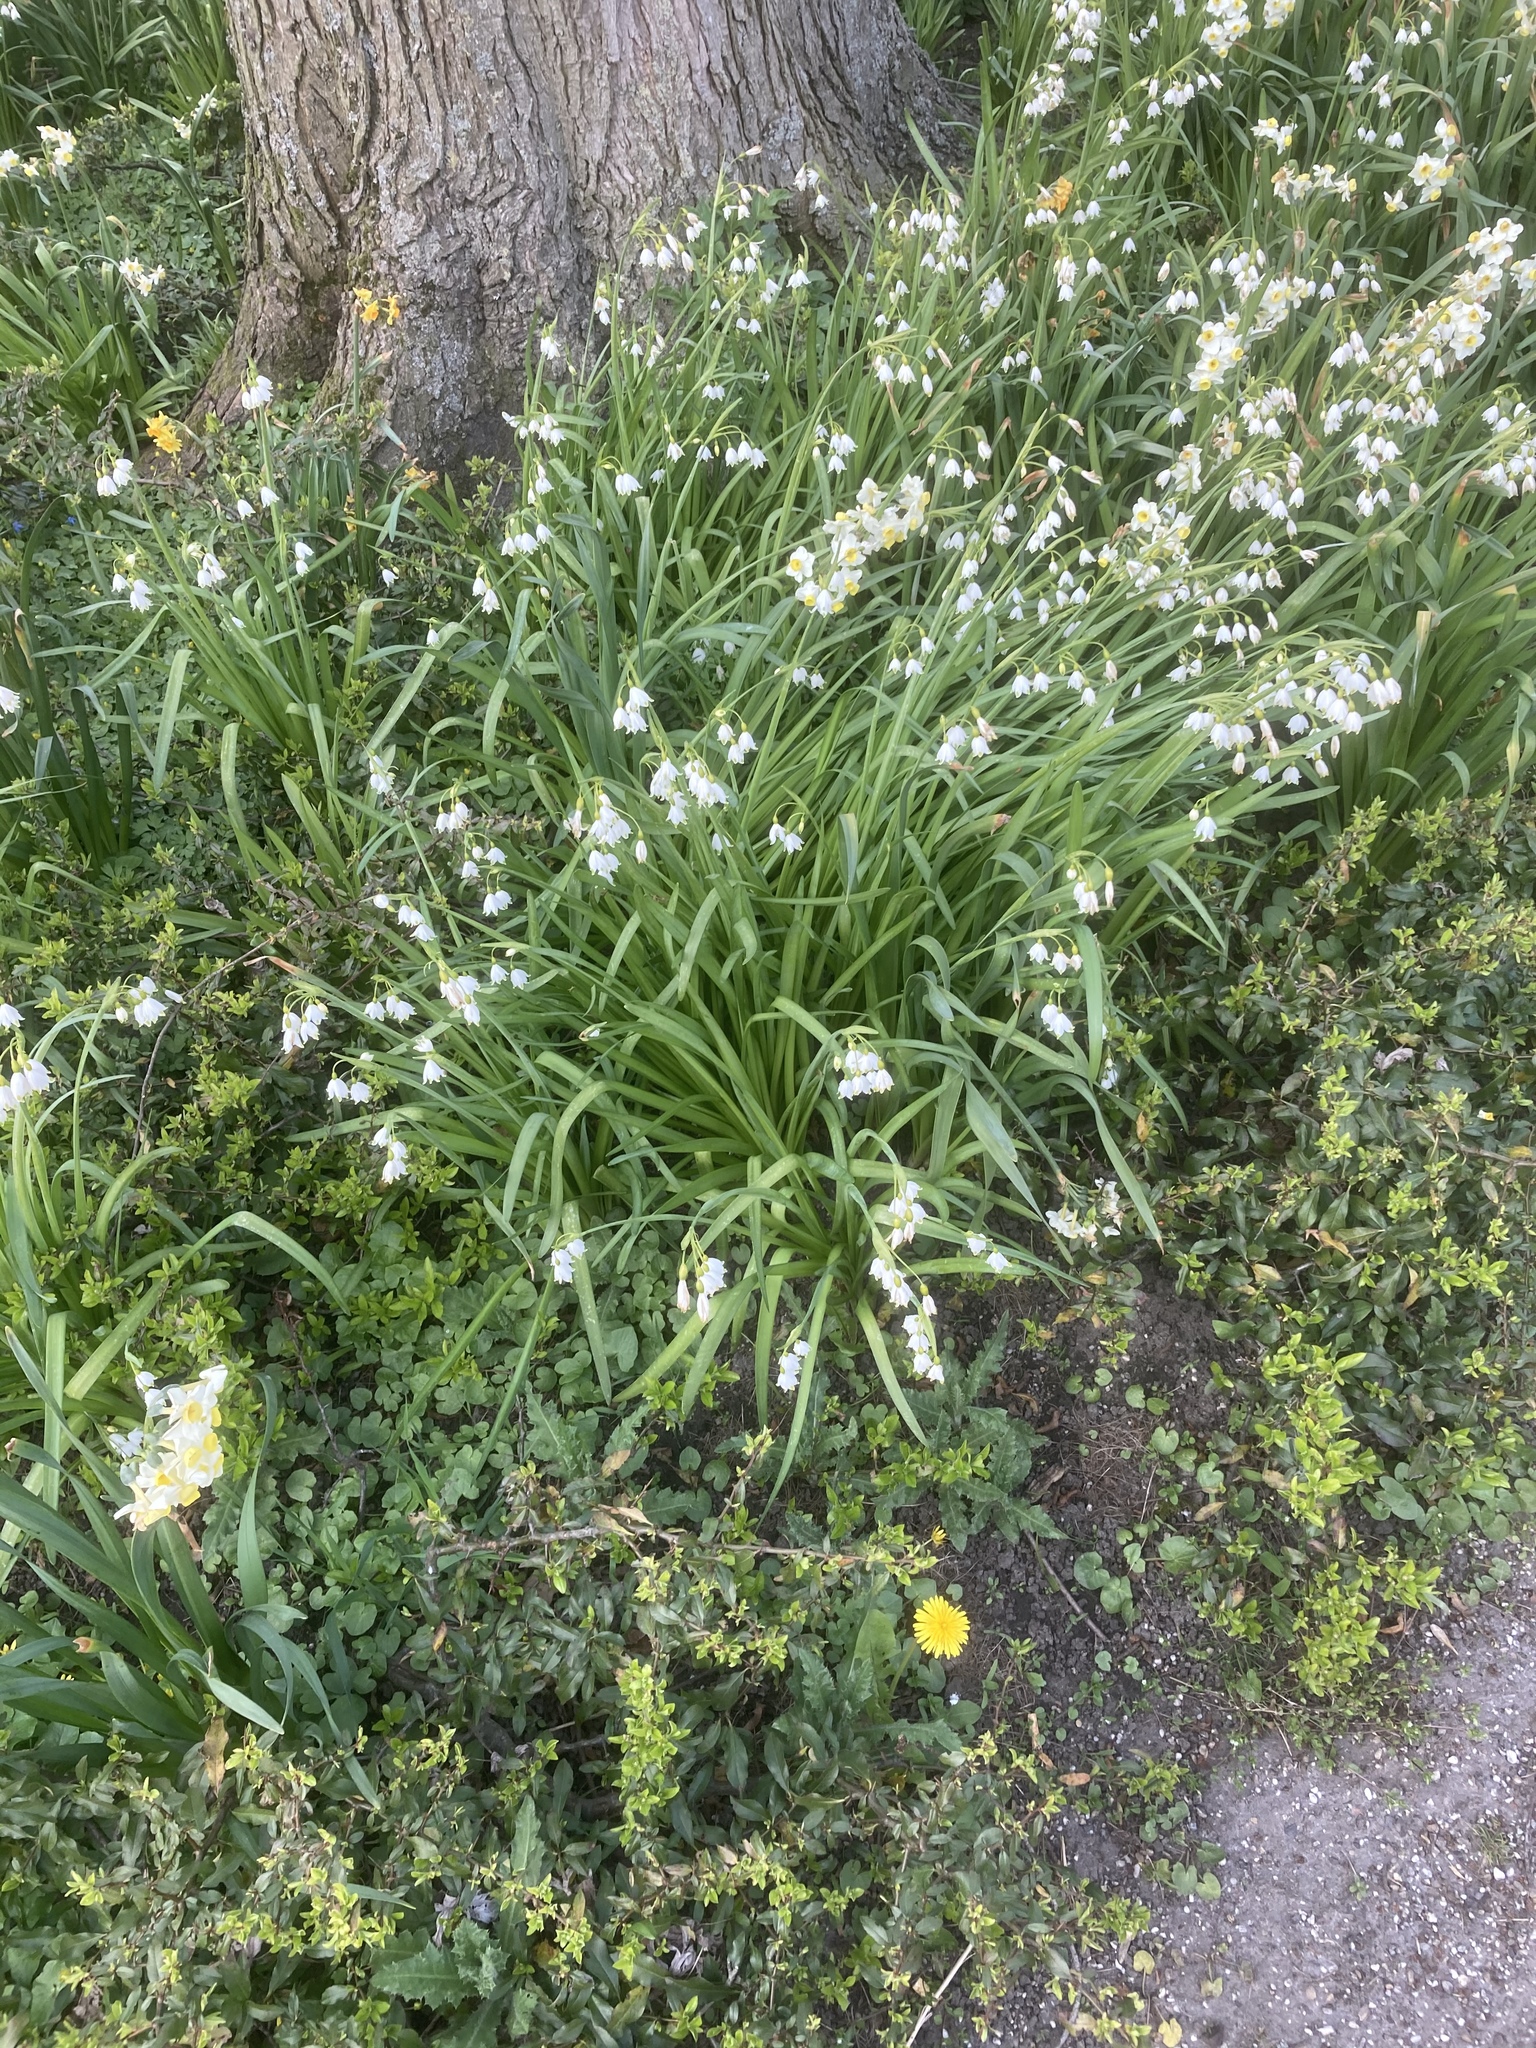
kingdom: Plantae
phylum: Tracheophyta
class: Liliopsida
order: Asparagales
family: Amaryllidaceae
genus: Leucojum
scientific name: Leucojum aestivum
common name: Summer snowflake
